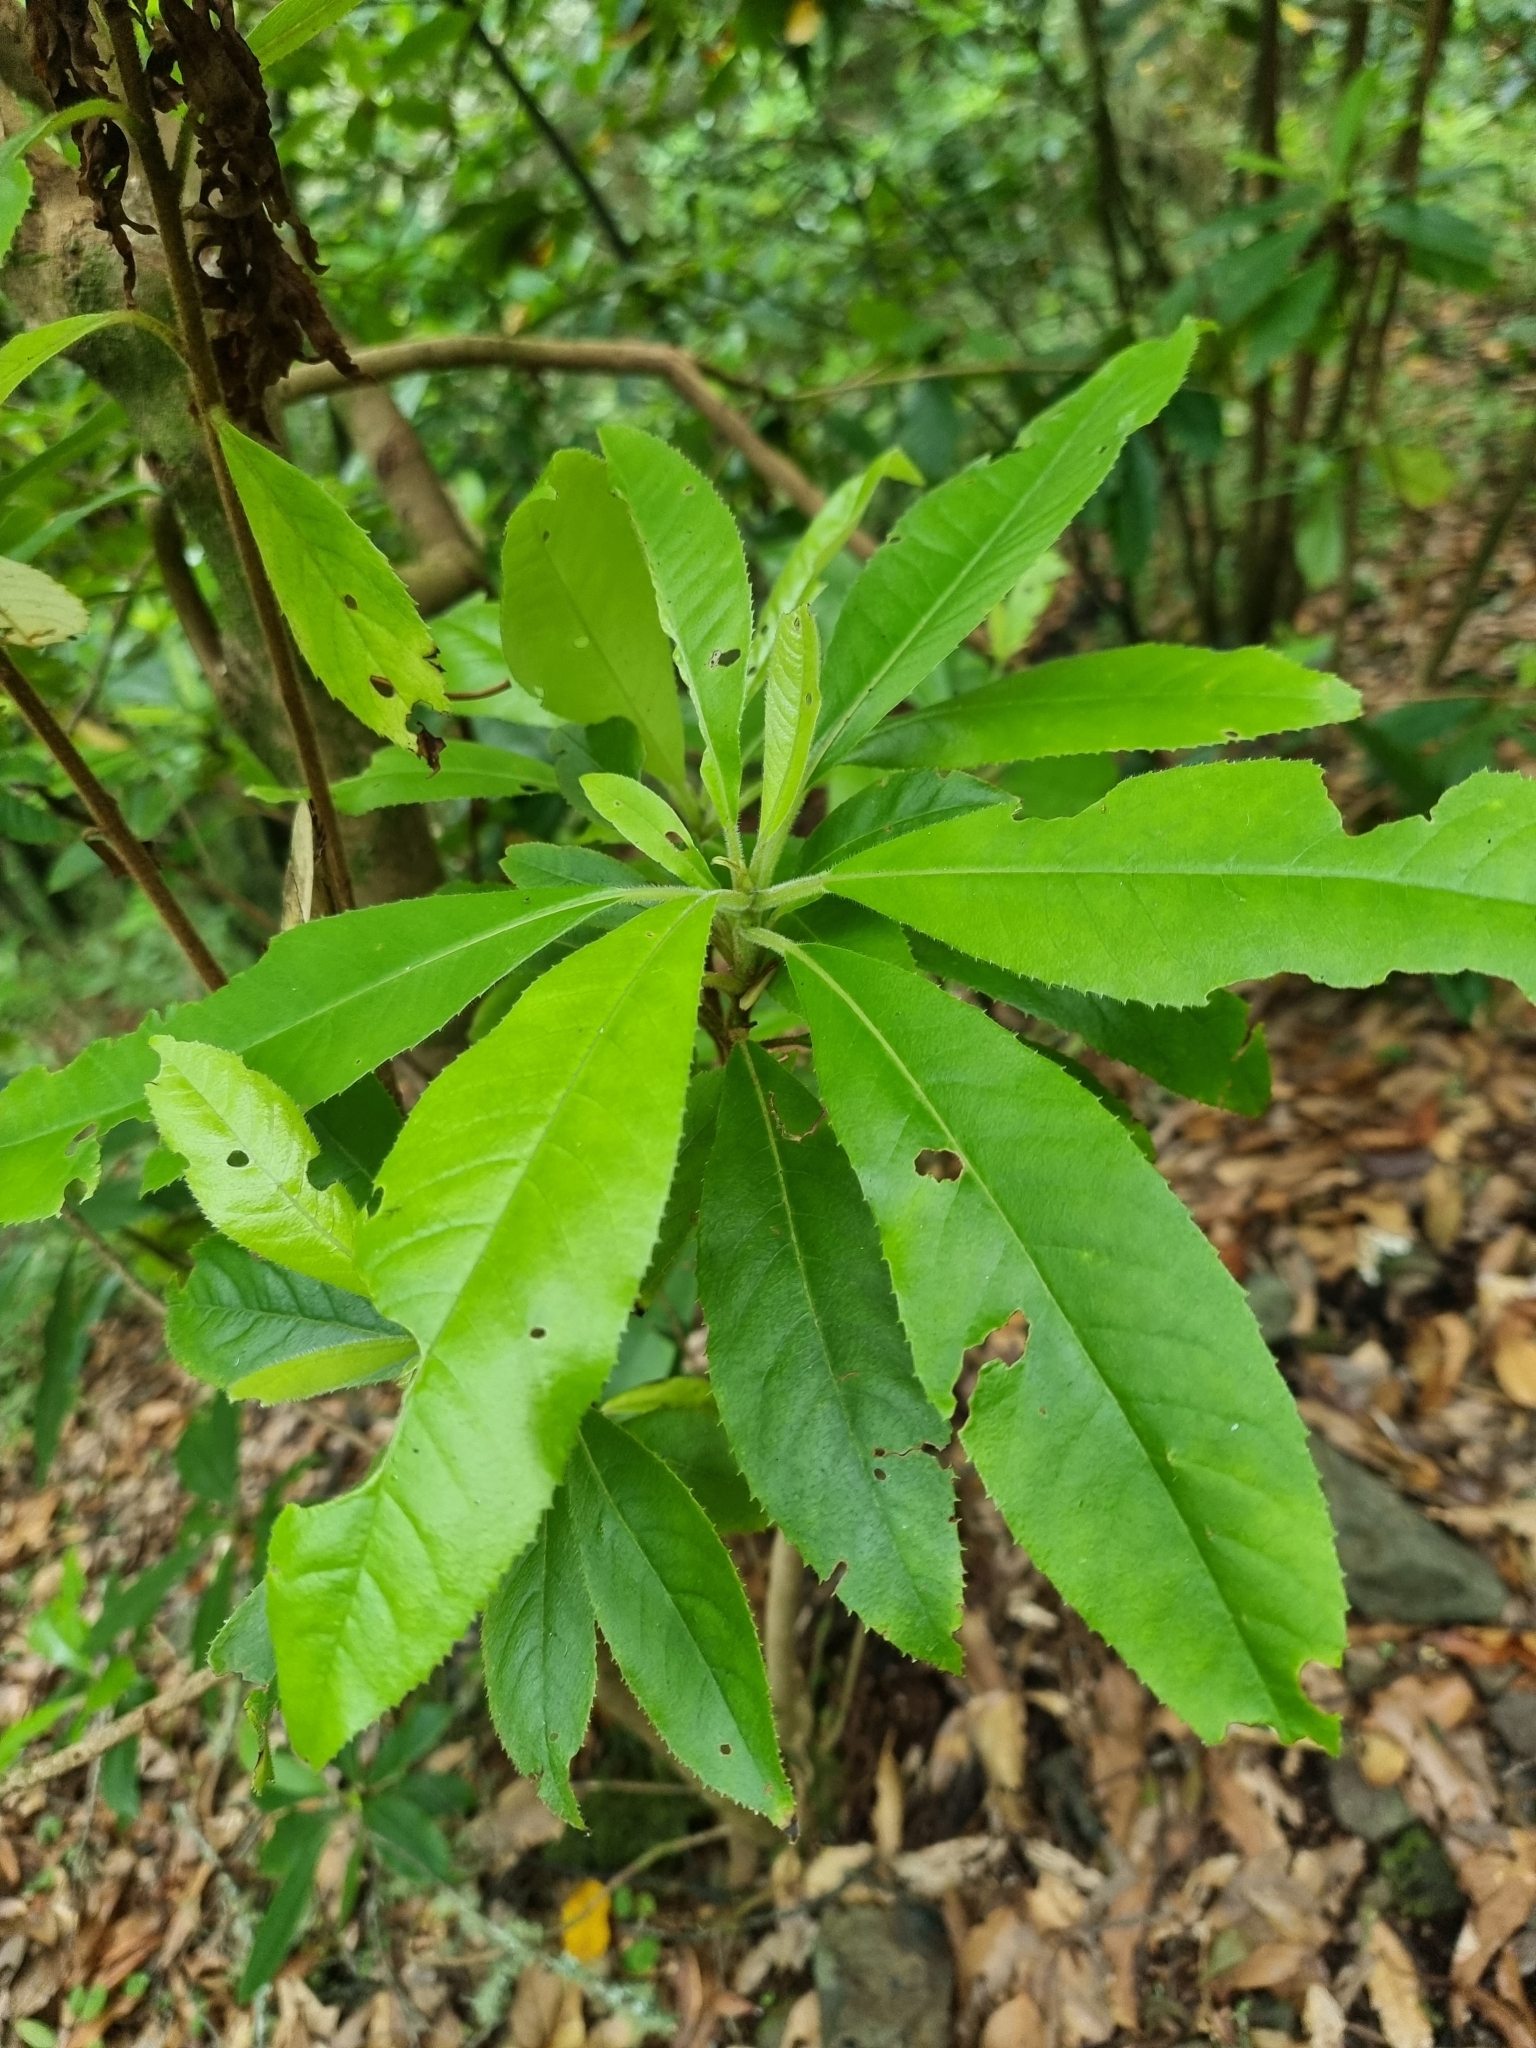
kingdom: Plantae
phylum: Tracheophyta
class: Magnoliopsida
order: Ericales
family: Clethraceae
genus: Clethra
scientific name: Clethra arborea
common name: Lily-of-the-valley-tree
